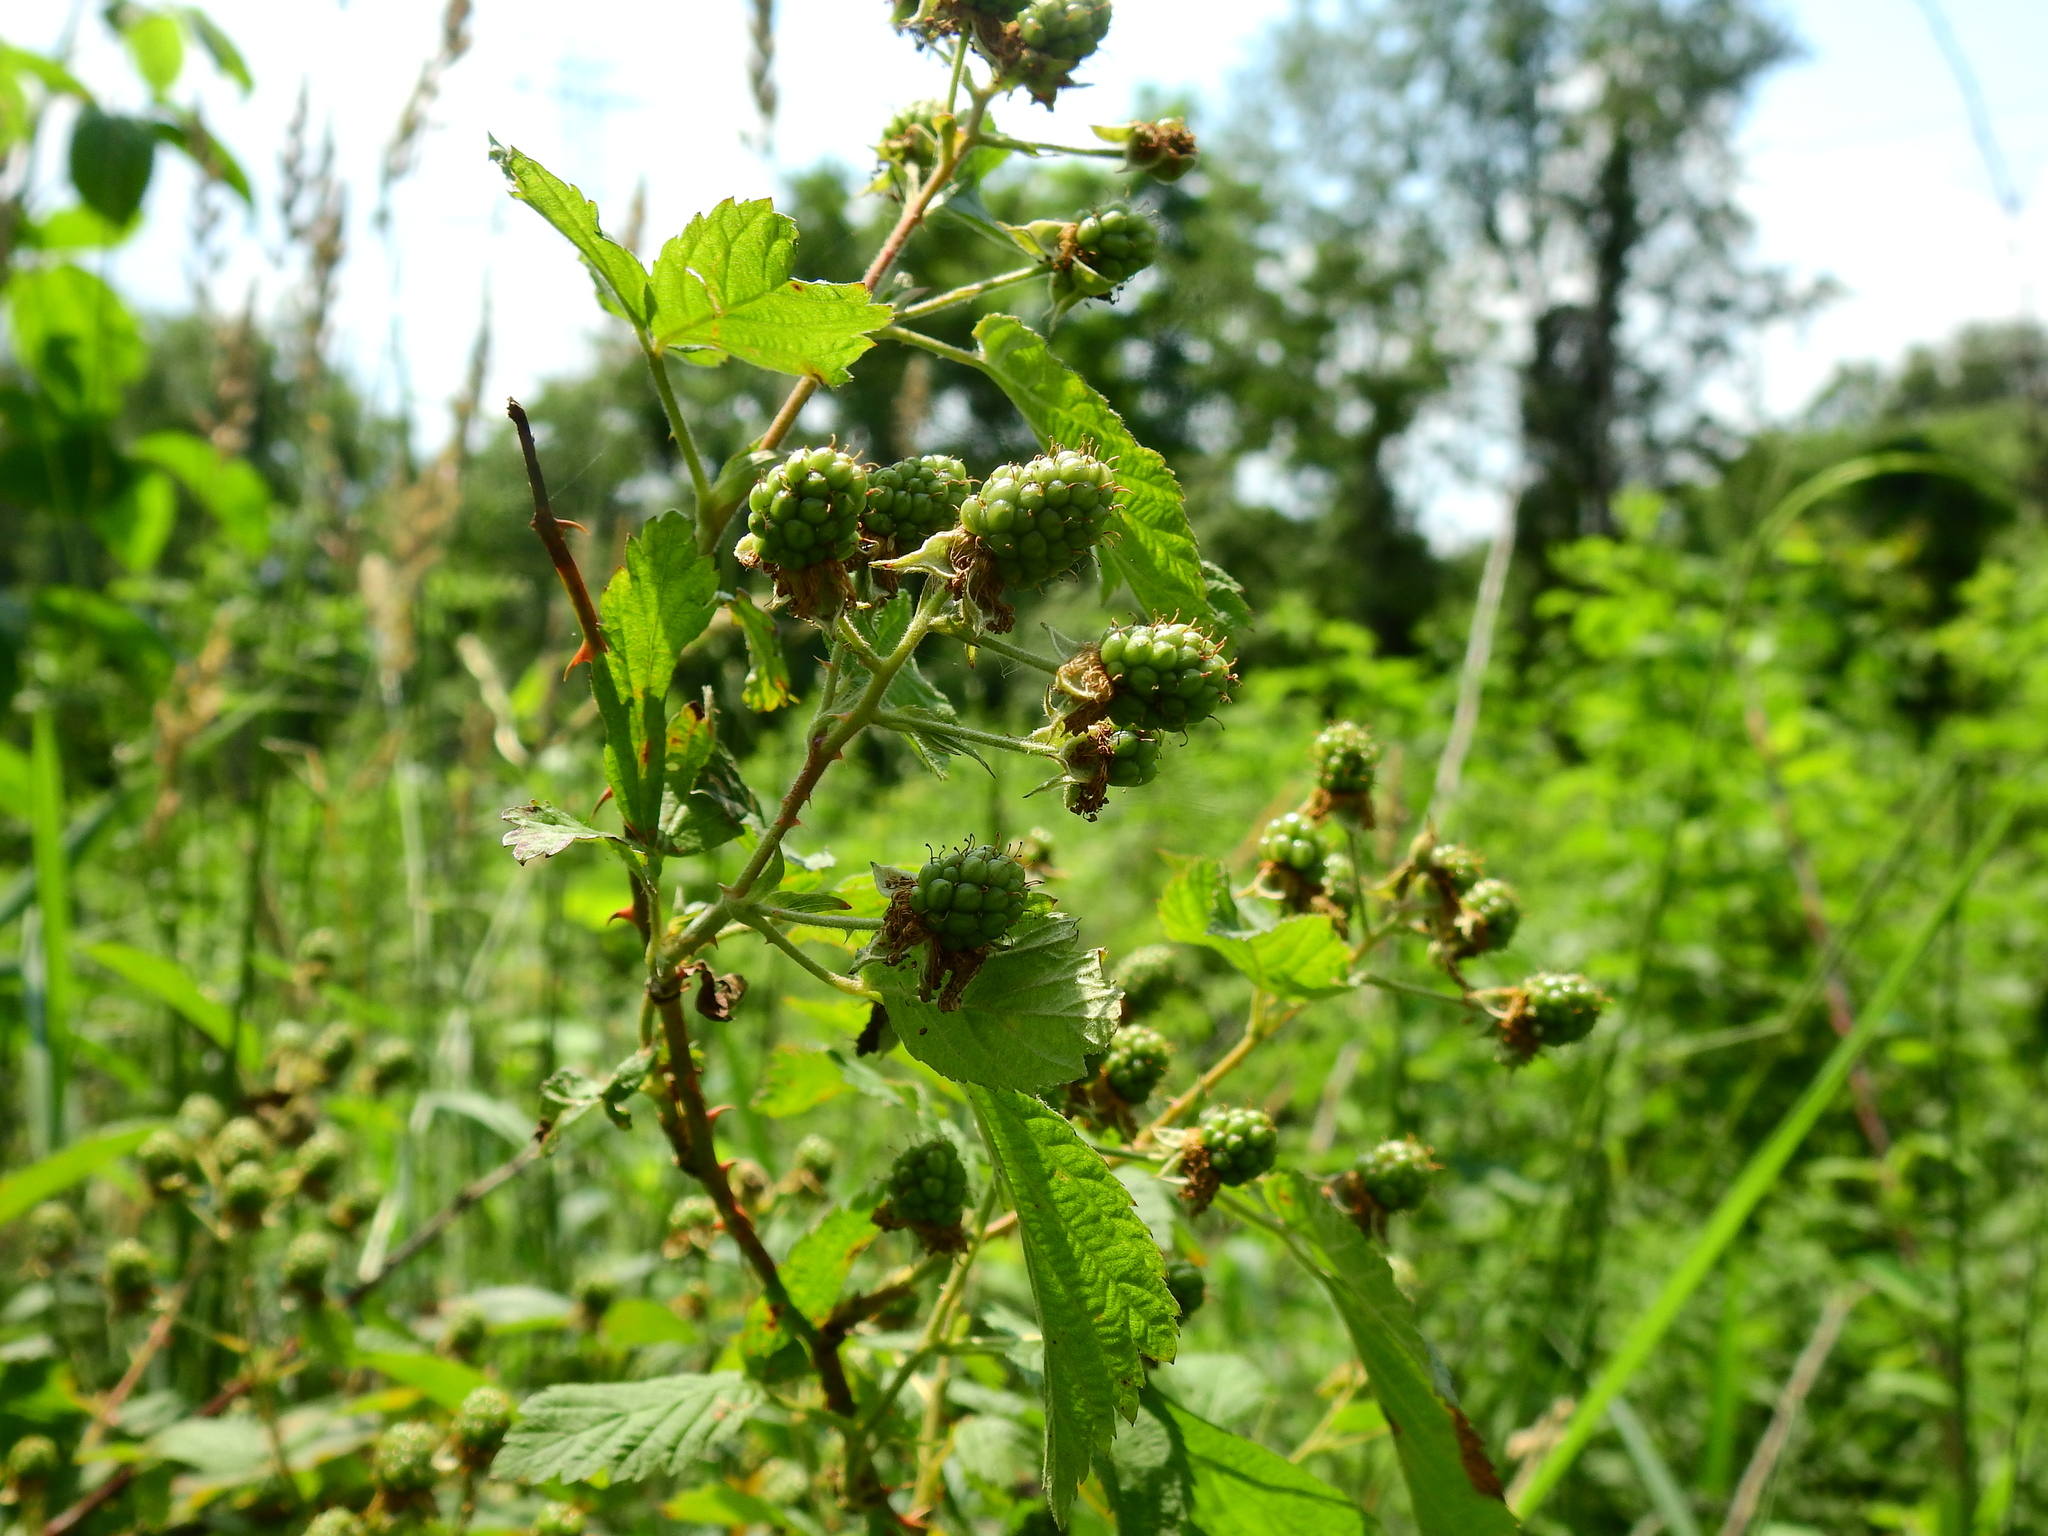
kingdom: Plantae
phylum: Tracheophyta
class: Magnoliopsida
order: Rosales
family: Rosaceae
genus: Rubus
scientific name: Rubus allegheniensis
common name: Allegheny blackberry
